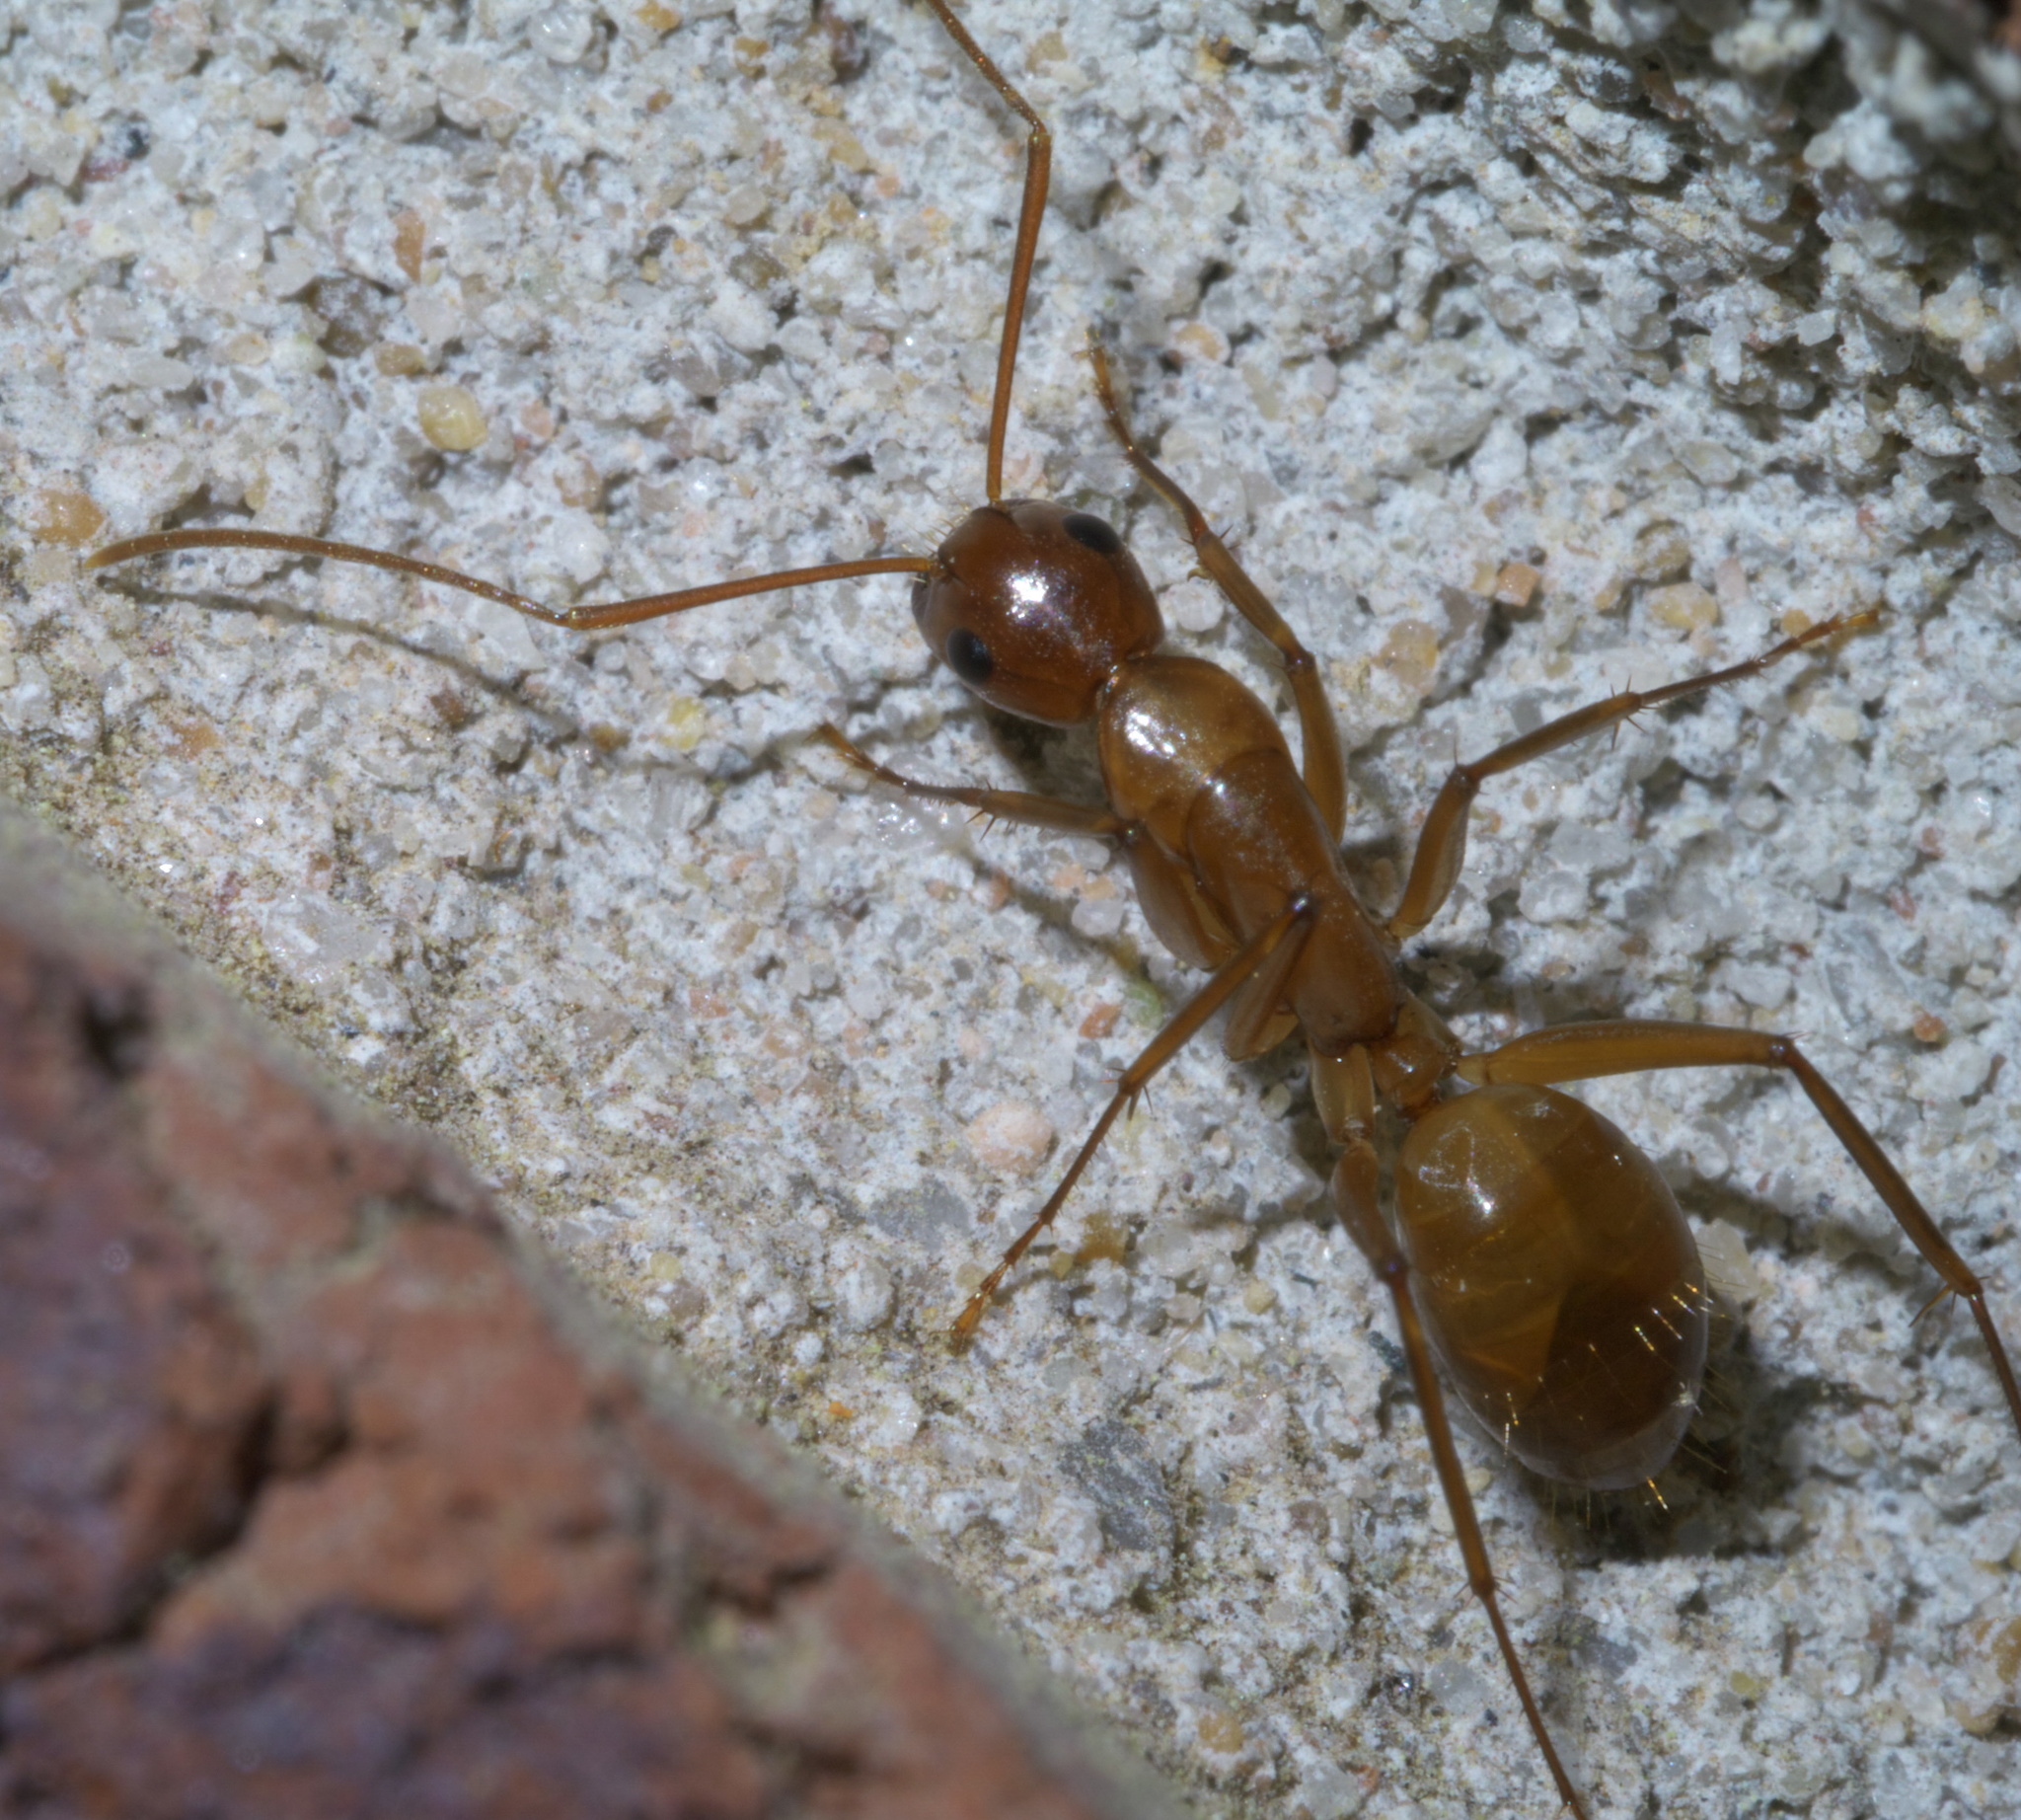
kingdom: Animalia
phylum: Arthropoda
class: Insecta
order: Hymenoptera
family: Formicidae
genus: Camponotus
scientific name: Camponotus castaneus
